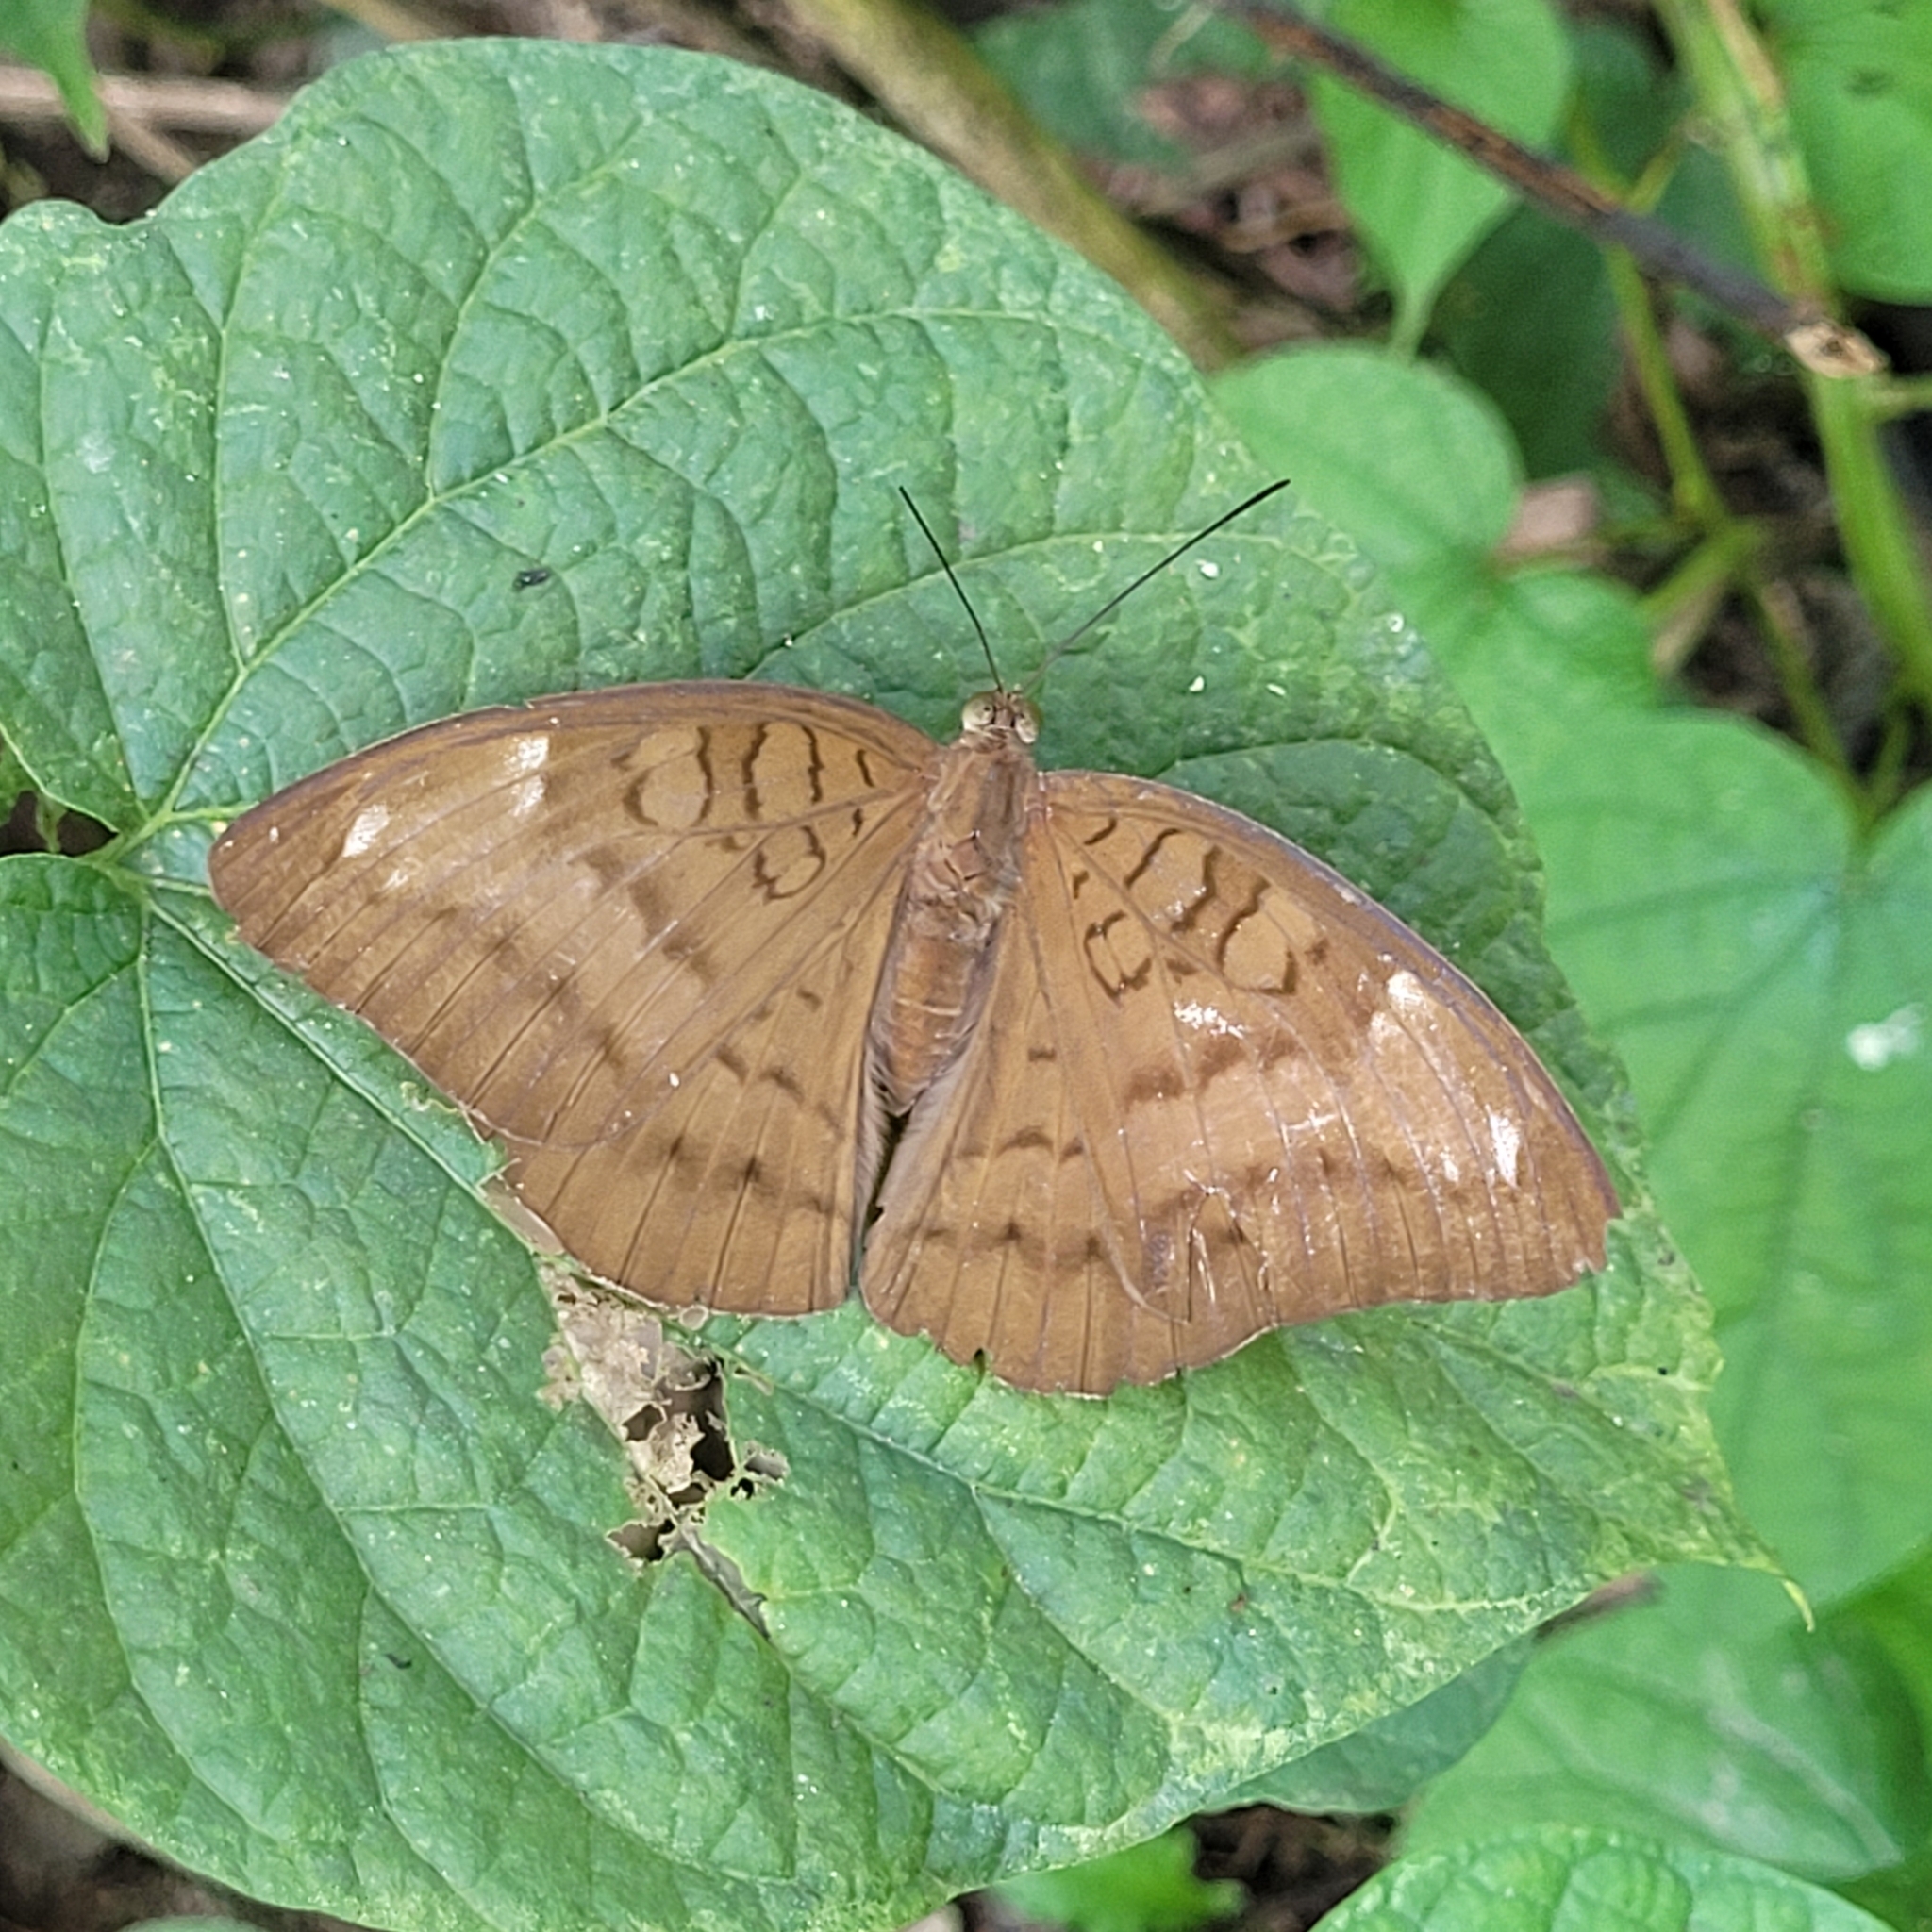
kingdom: Animalia
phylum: Arthropoda
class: Insecta
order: Lepidoptera
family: Nymphalidae
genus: Tanaecia
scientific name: Tanaecia julii
